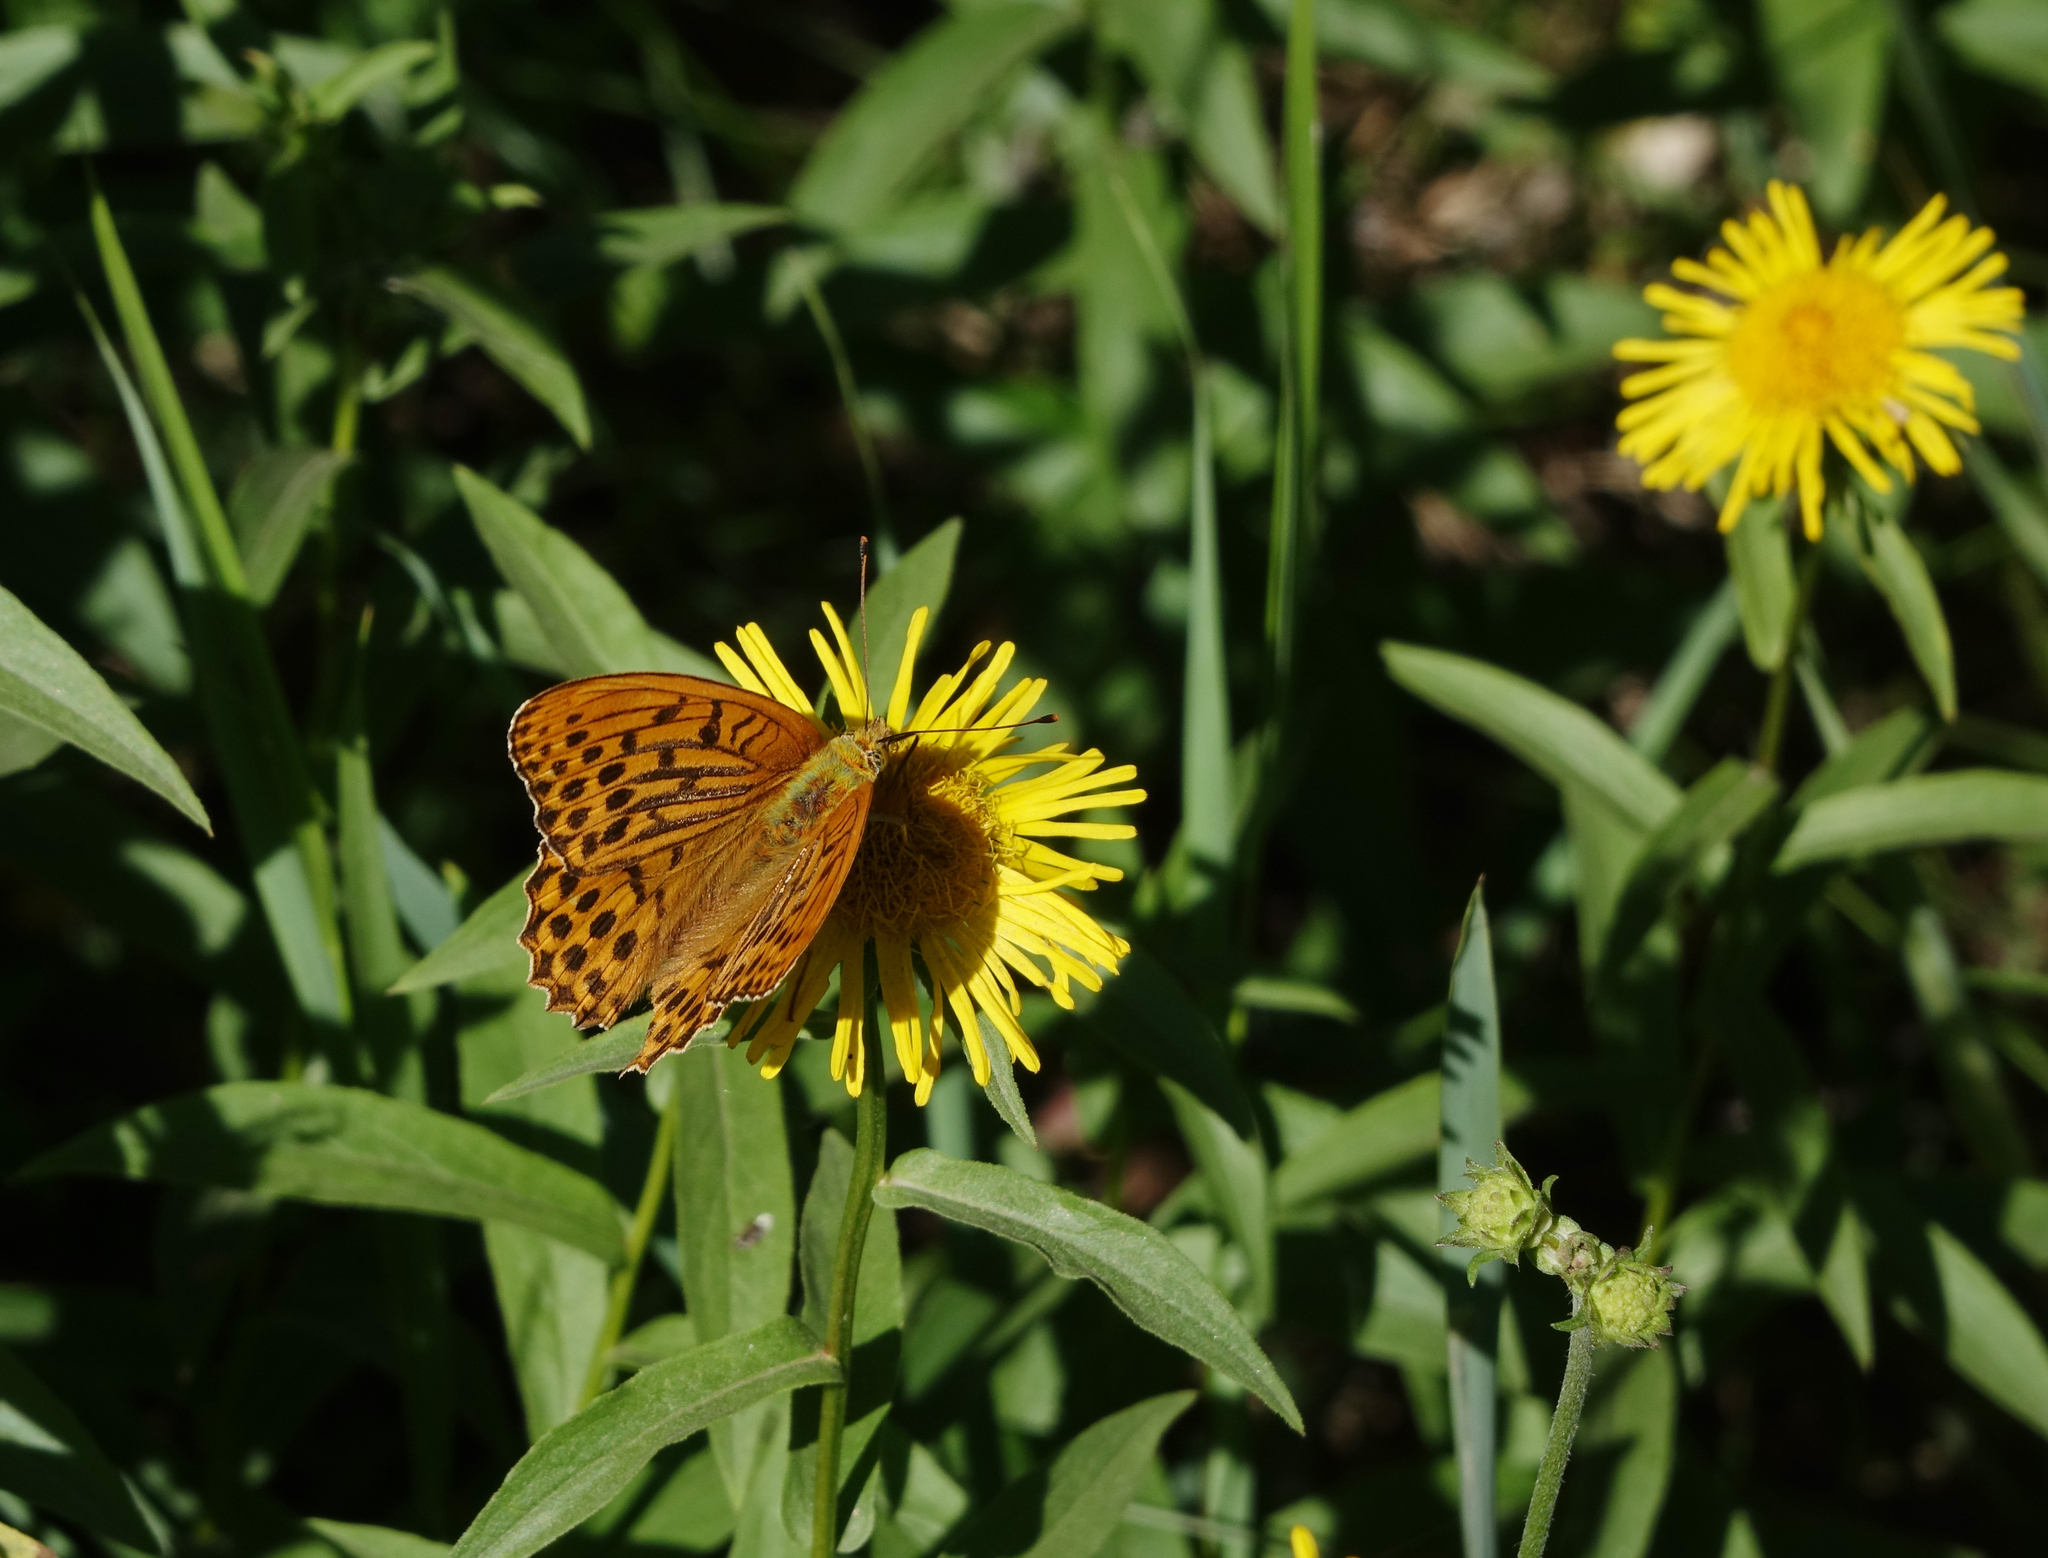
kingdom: Animalia
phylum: Arthropoda
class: Insecta
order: Lepidoptera
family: Nymphalidae
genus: Argynnis
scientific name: Argynnis paphia
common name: Silver-washed fritillary
